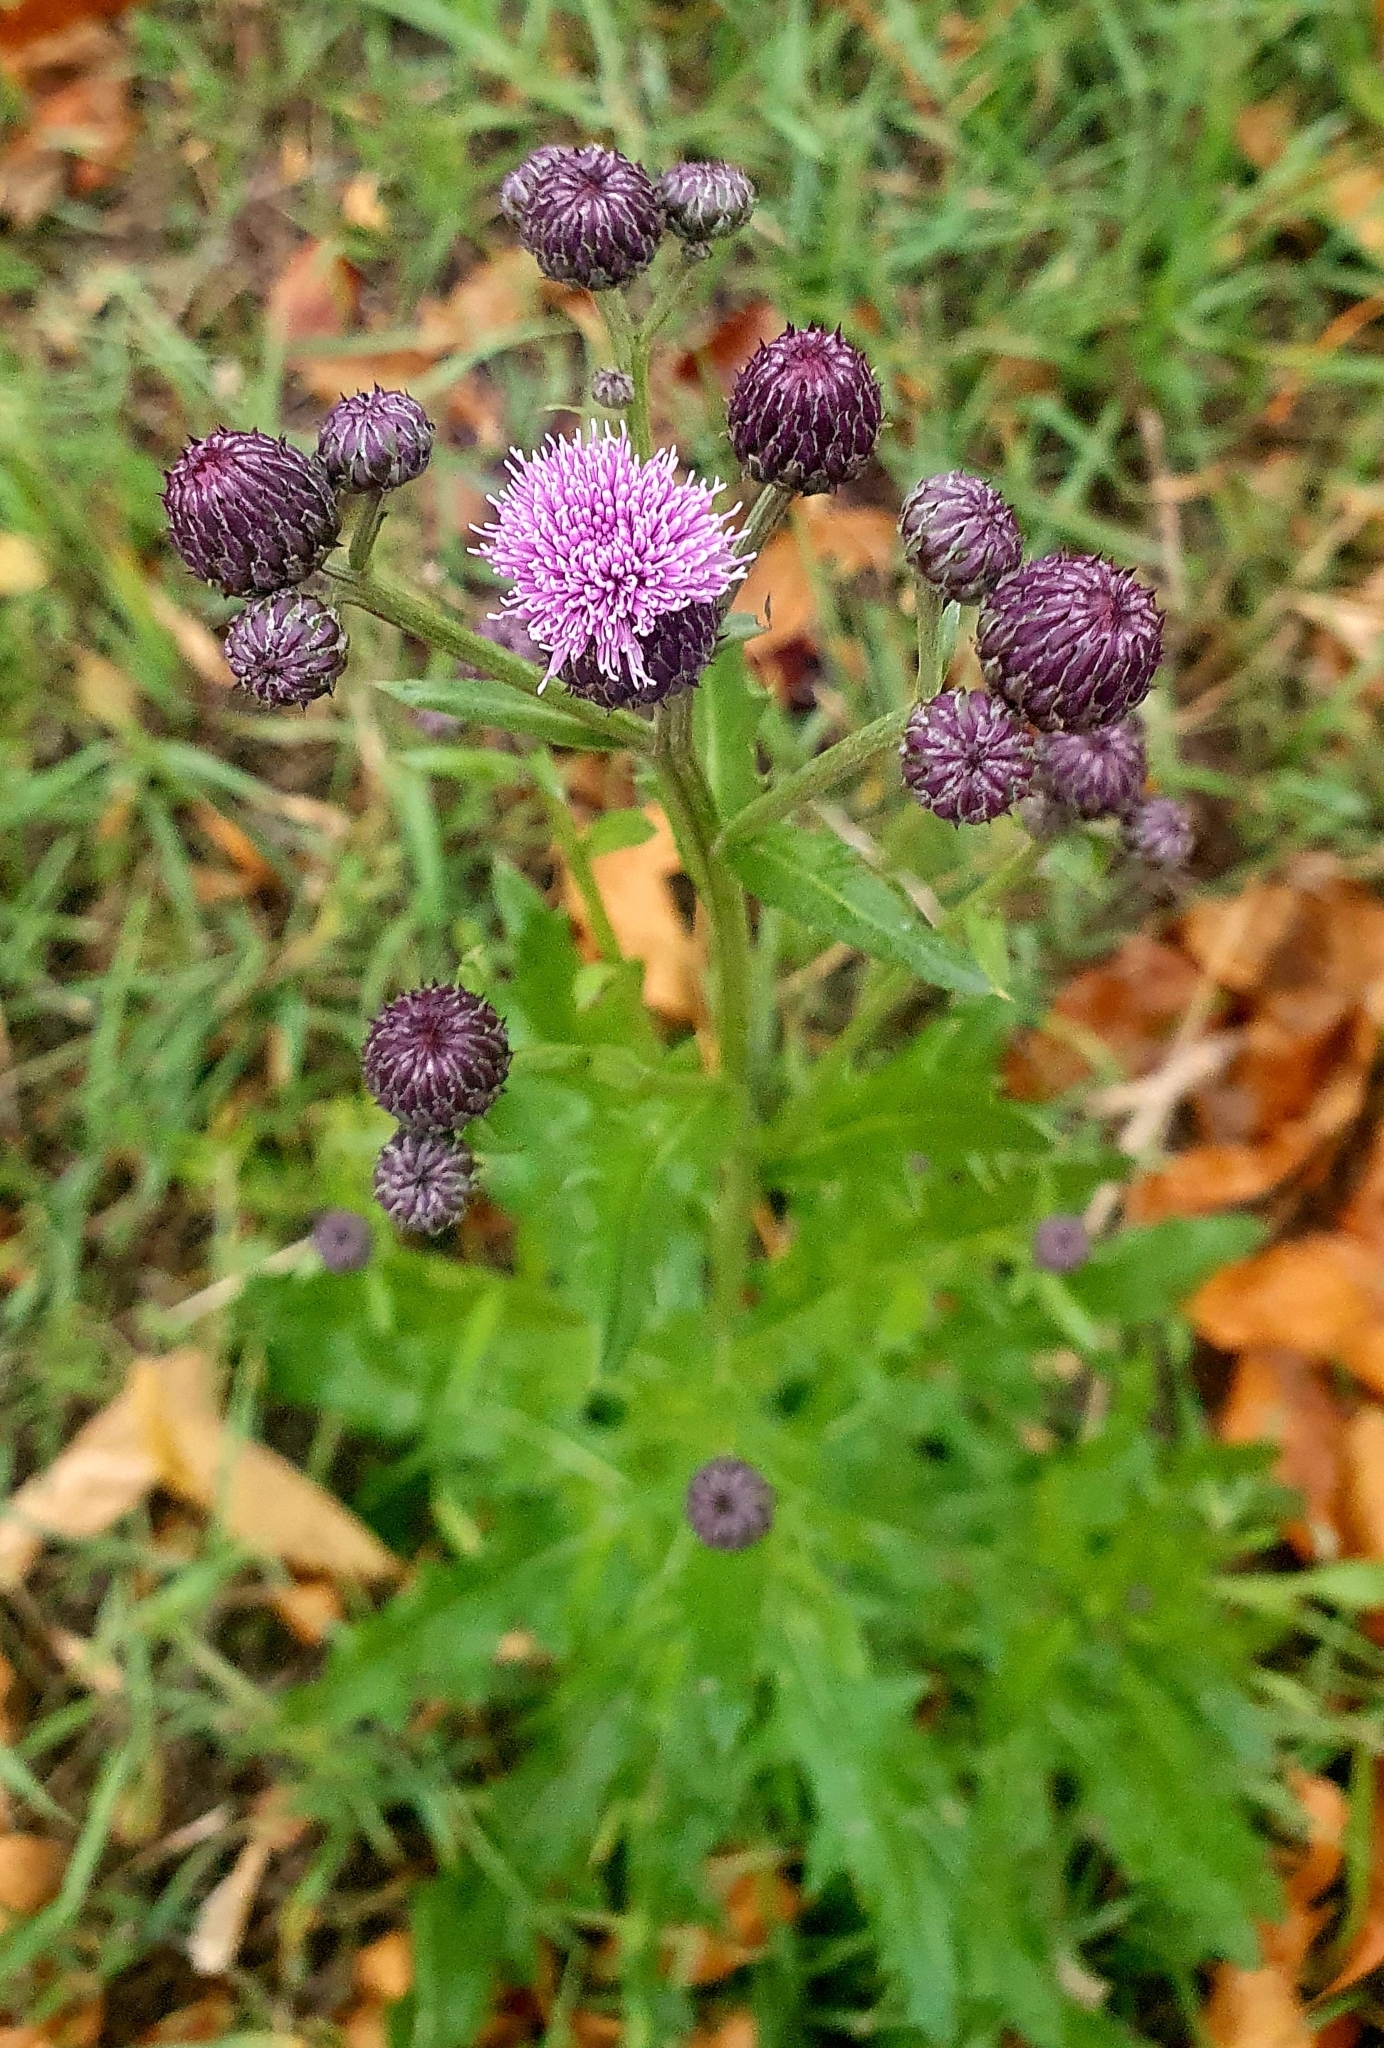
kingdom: Plantae
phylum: Tracheophyta
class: Magnoliopsida
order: Asterales
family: Asteraceae
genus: Cirsium
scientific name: Cirsium arvense
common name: Creeping thistle
